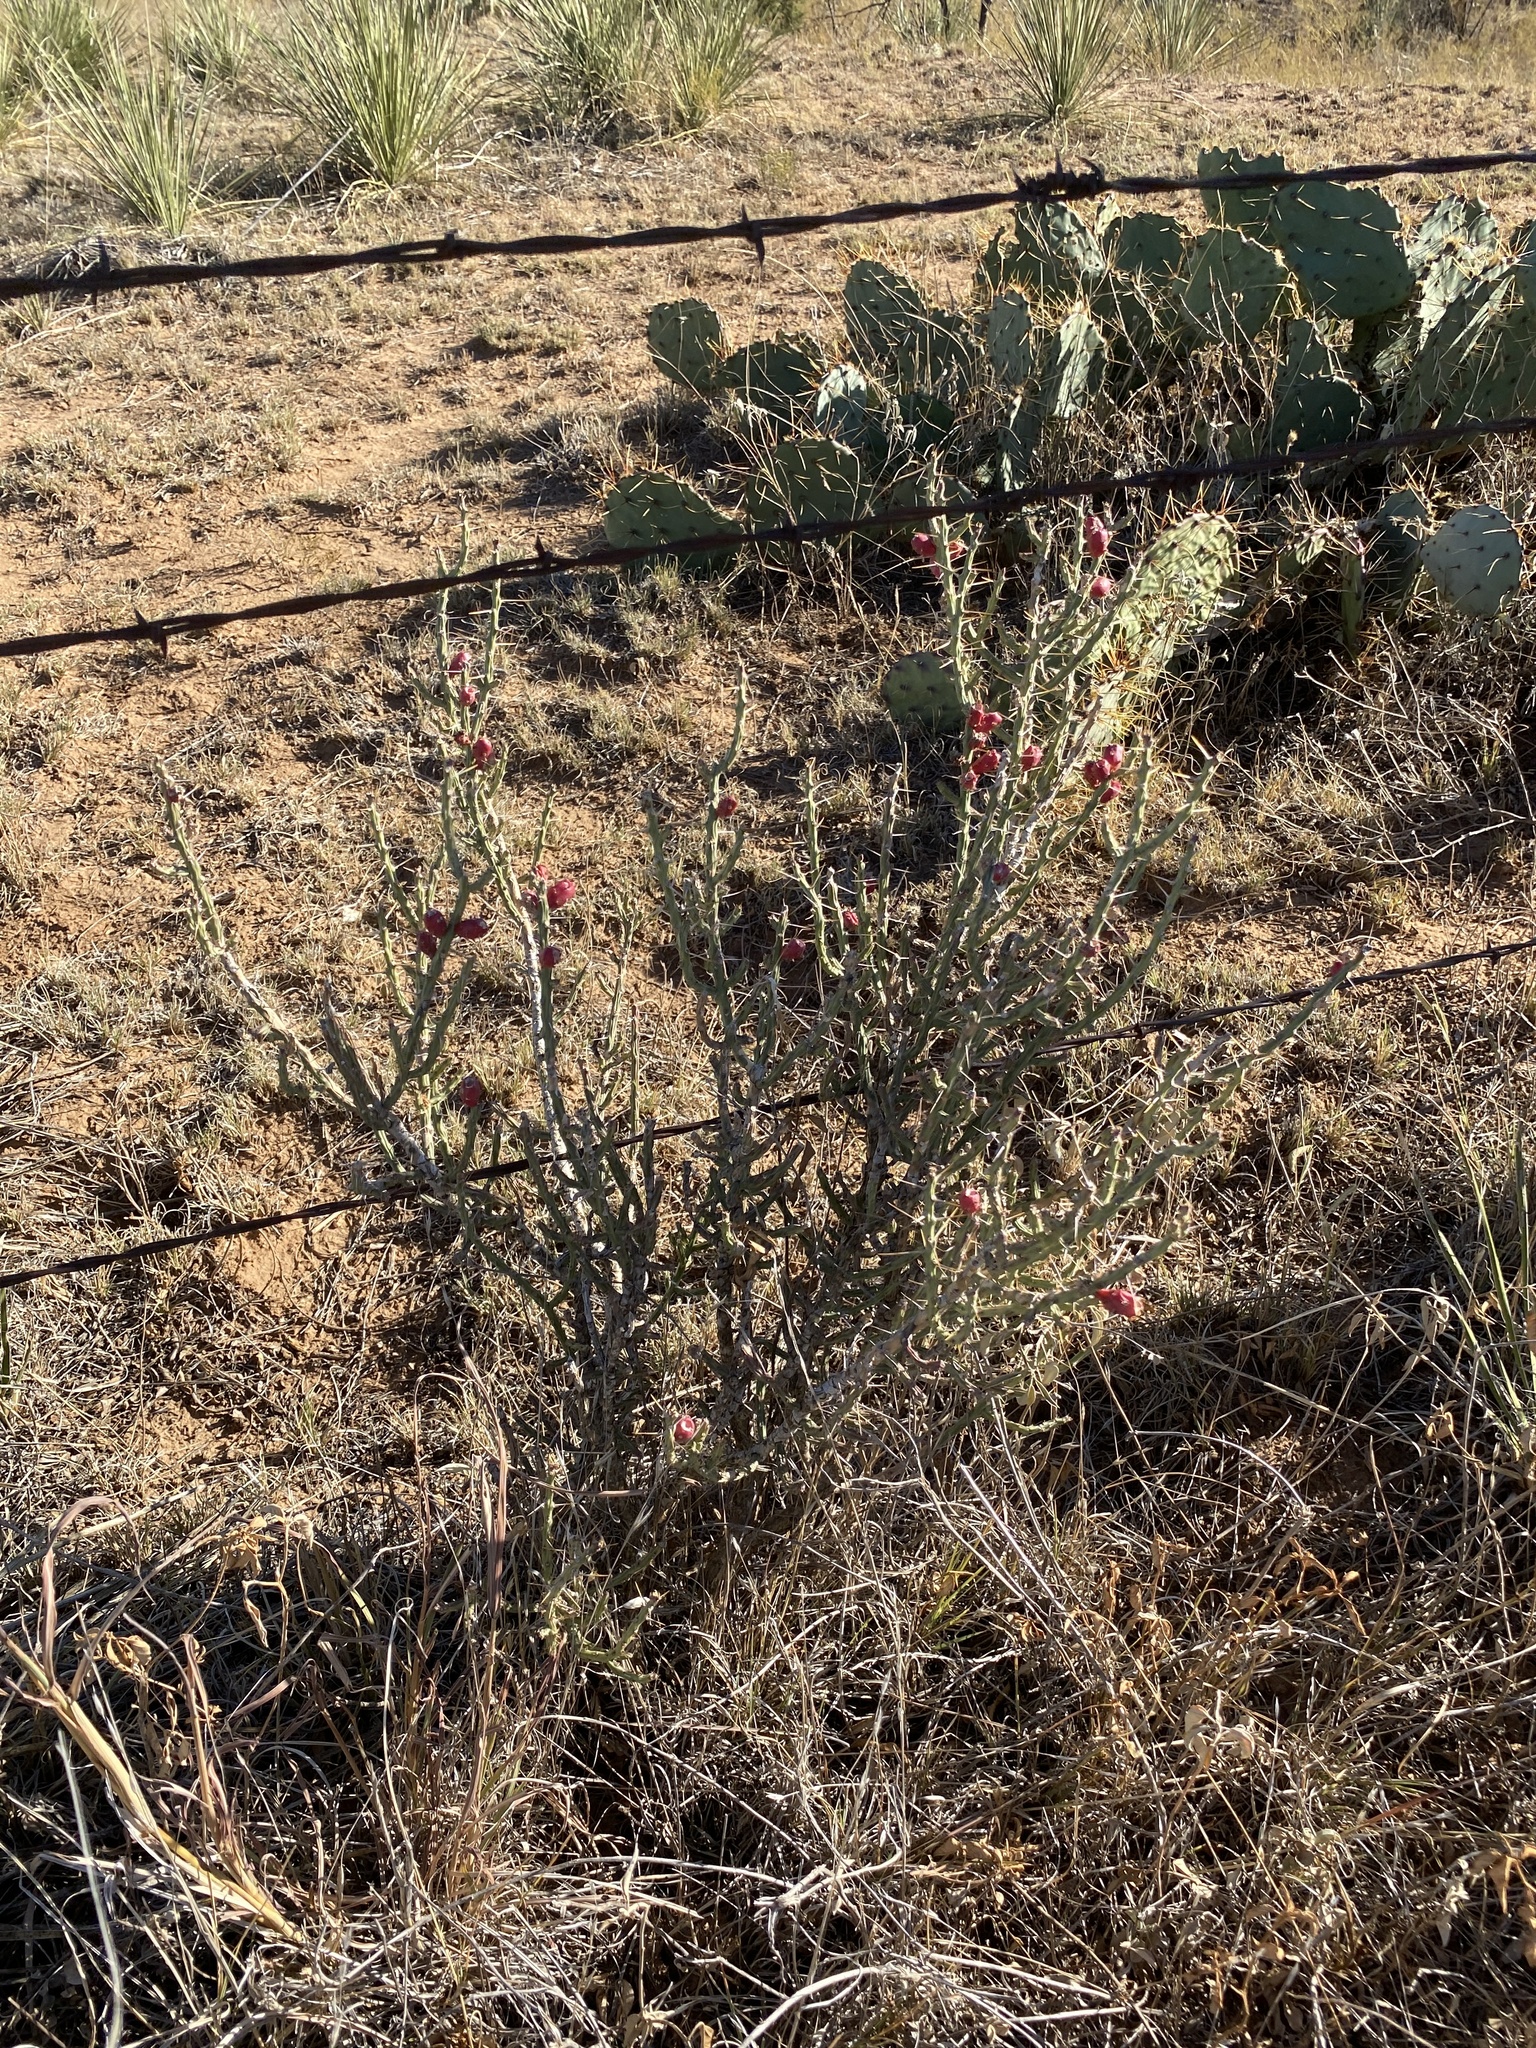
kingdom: Plantae
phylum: Tracheophyta
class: Magnoliopsida
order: Caryophyllales
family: Cactaceae
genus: Cylindropuntia
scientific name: Cylindropuntia leptocaulis
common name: Christmas cactus
